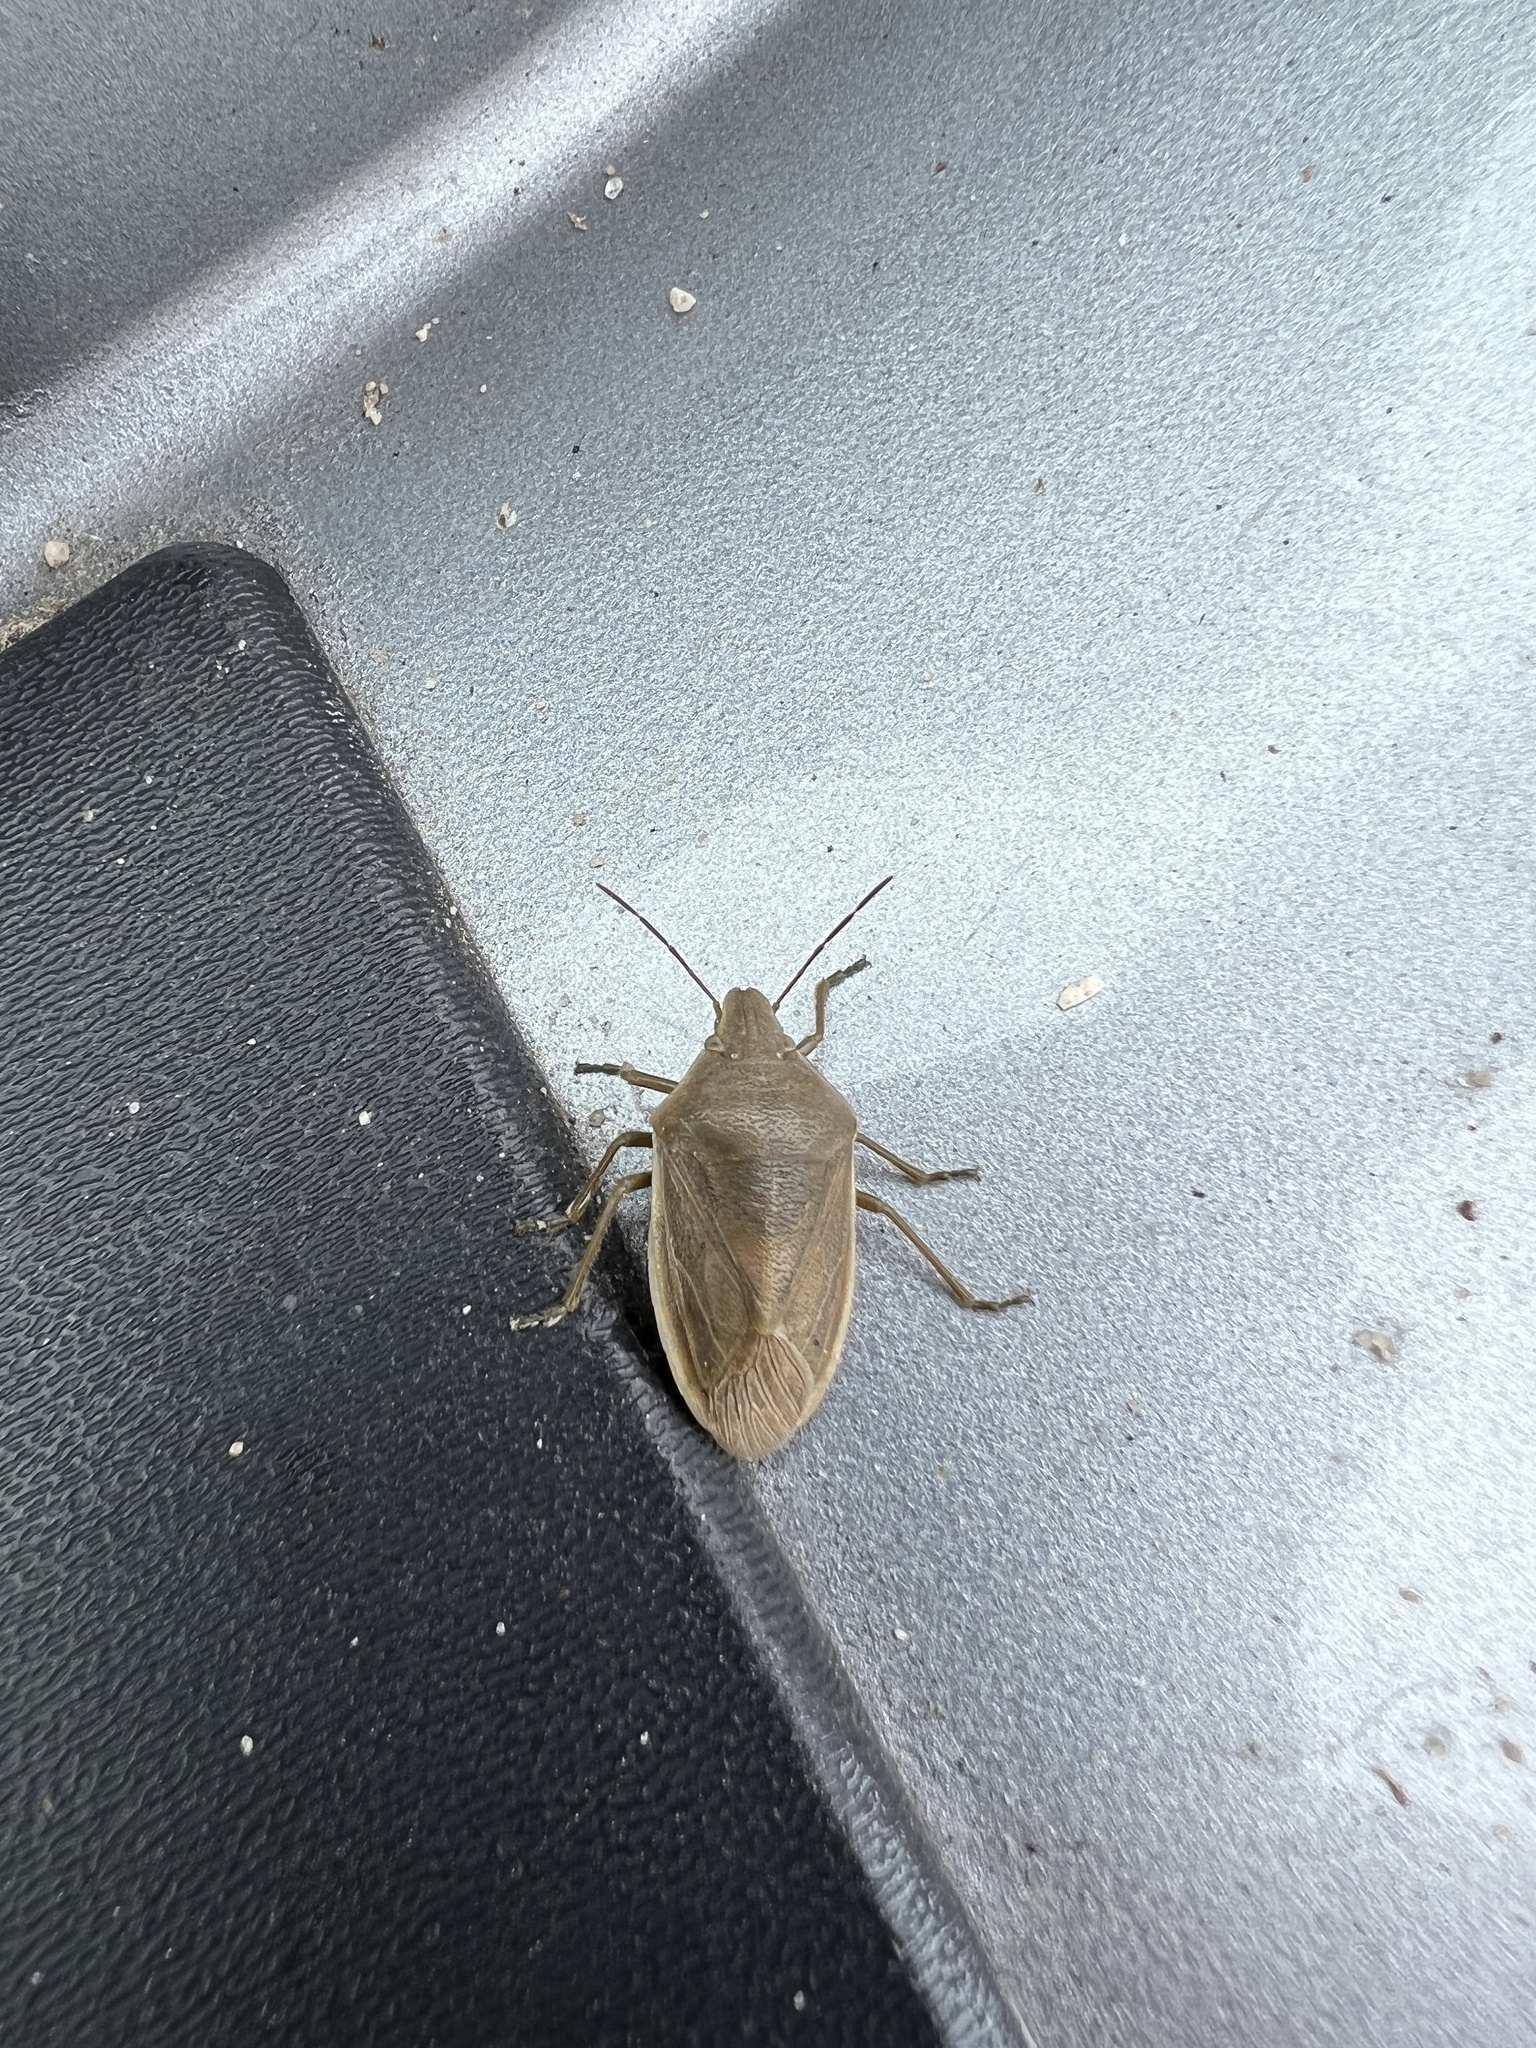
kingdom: Animalia
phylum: Arthropoda
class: Insecta
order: Hemiptera
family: Pentatomidae
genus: Chlorochroa
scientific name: Chlorochroa senilis
